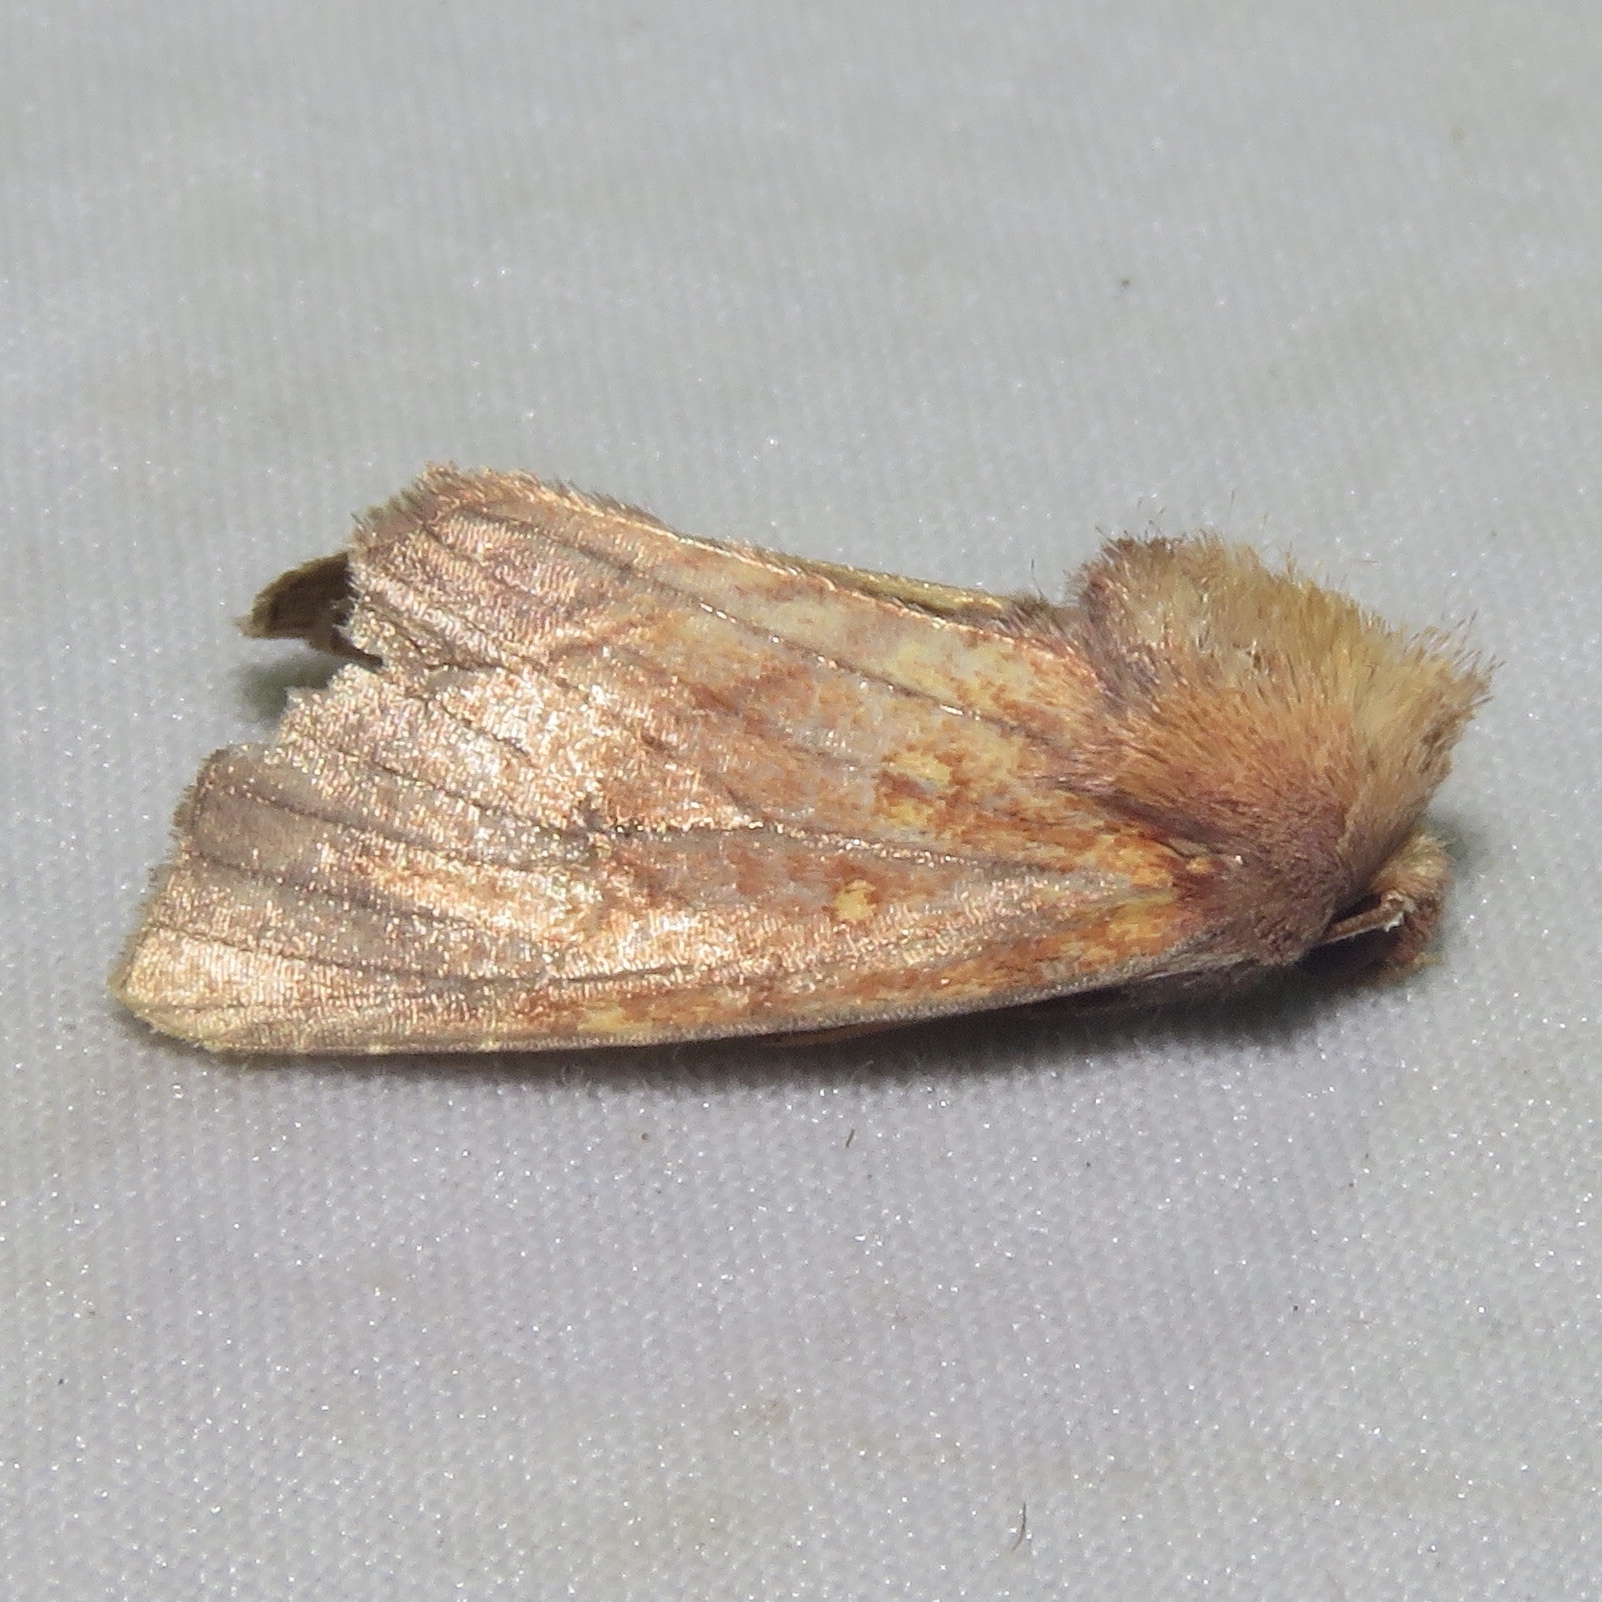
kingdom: Animalia
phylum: Arthropoda
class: Insecta
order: Lepidoptera
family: Noctuidae
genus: Papaipema
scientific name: Papaipema inquaesita
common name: Sensitive fern borer moth
